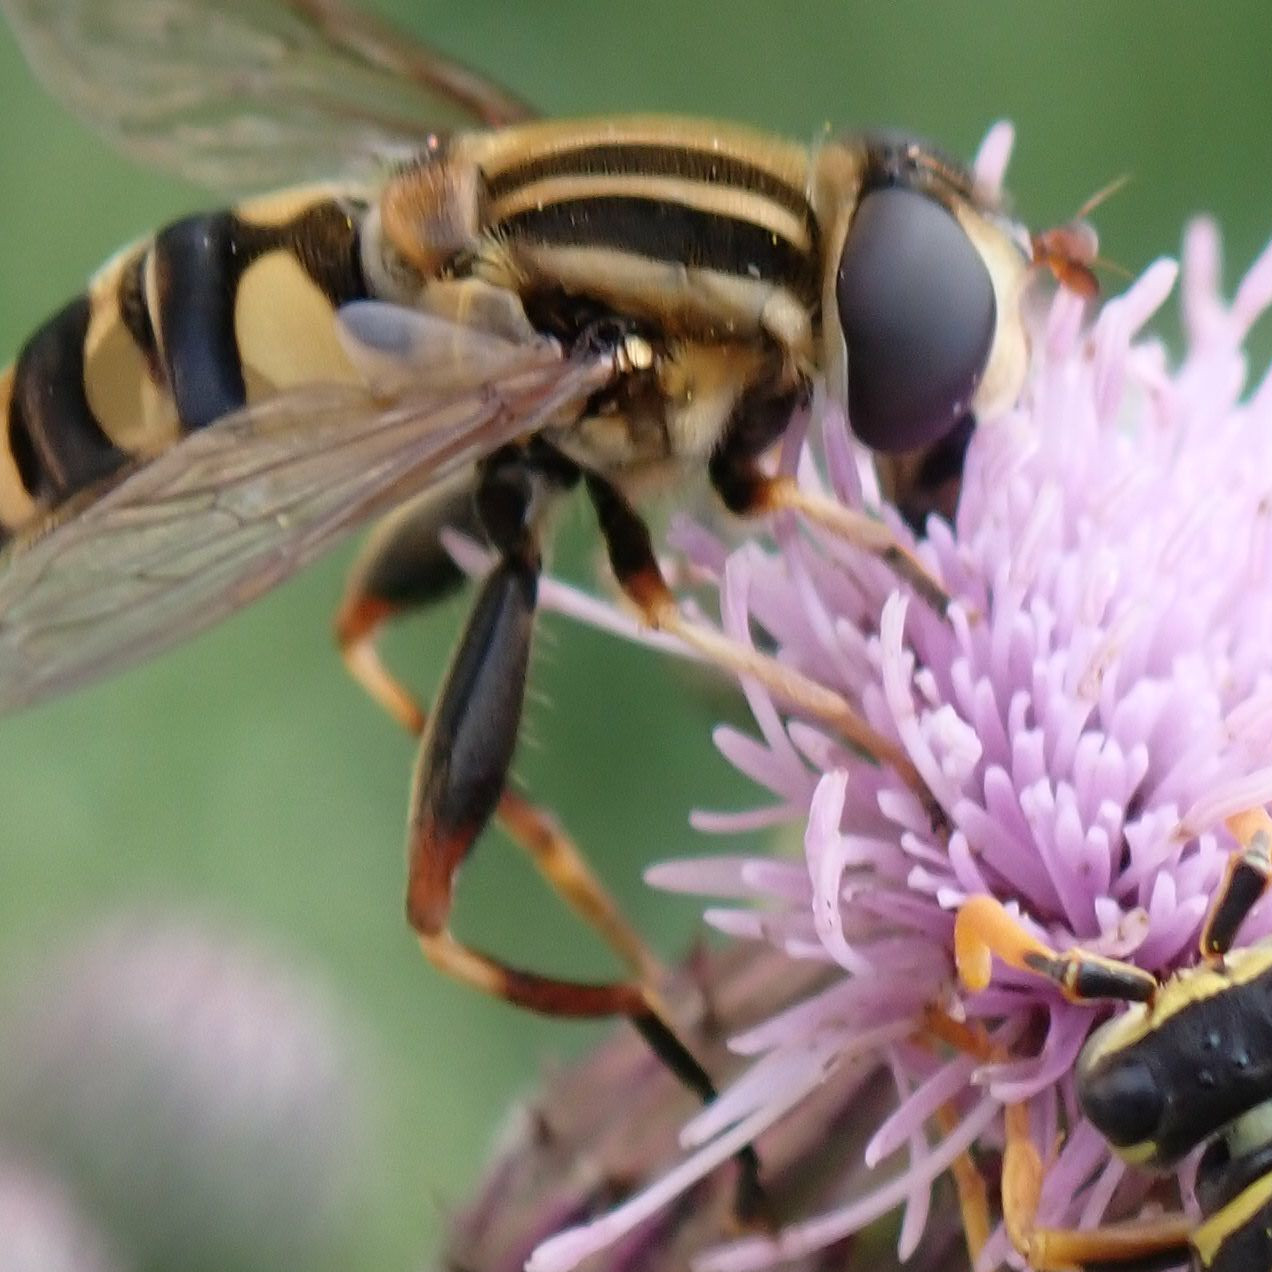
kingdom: Animalia
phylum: Arthropoda
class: Insecta
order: Diptera
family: Syrphidae
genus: Helophilus
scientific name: Helophilus fasciatus
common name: Narrow-headed marsh fly
